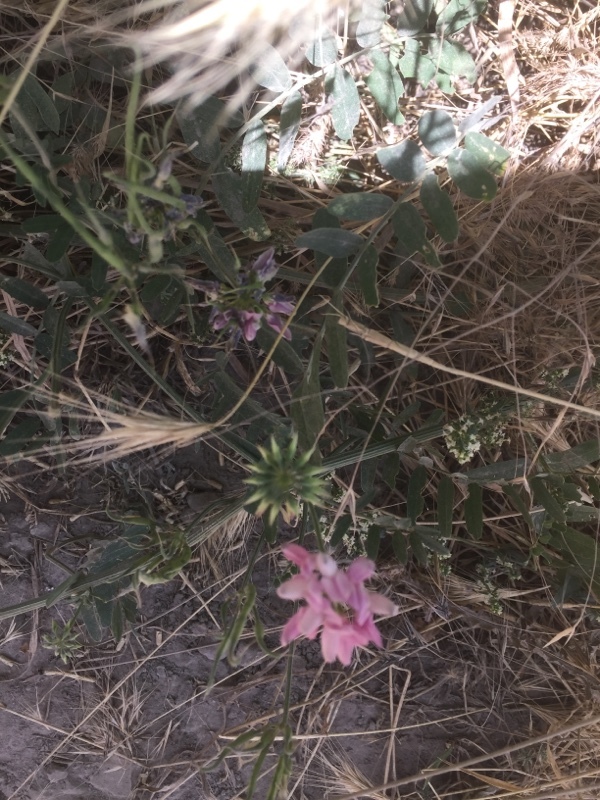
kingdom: Plantae
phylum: Tracheophyta
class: Magnoliopsida
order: Fabales
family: Fabaceae
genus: Coronilla
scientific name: Coronilla varia
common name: Crownvetch
